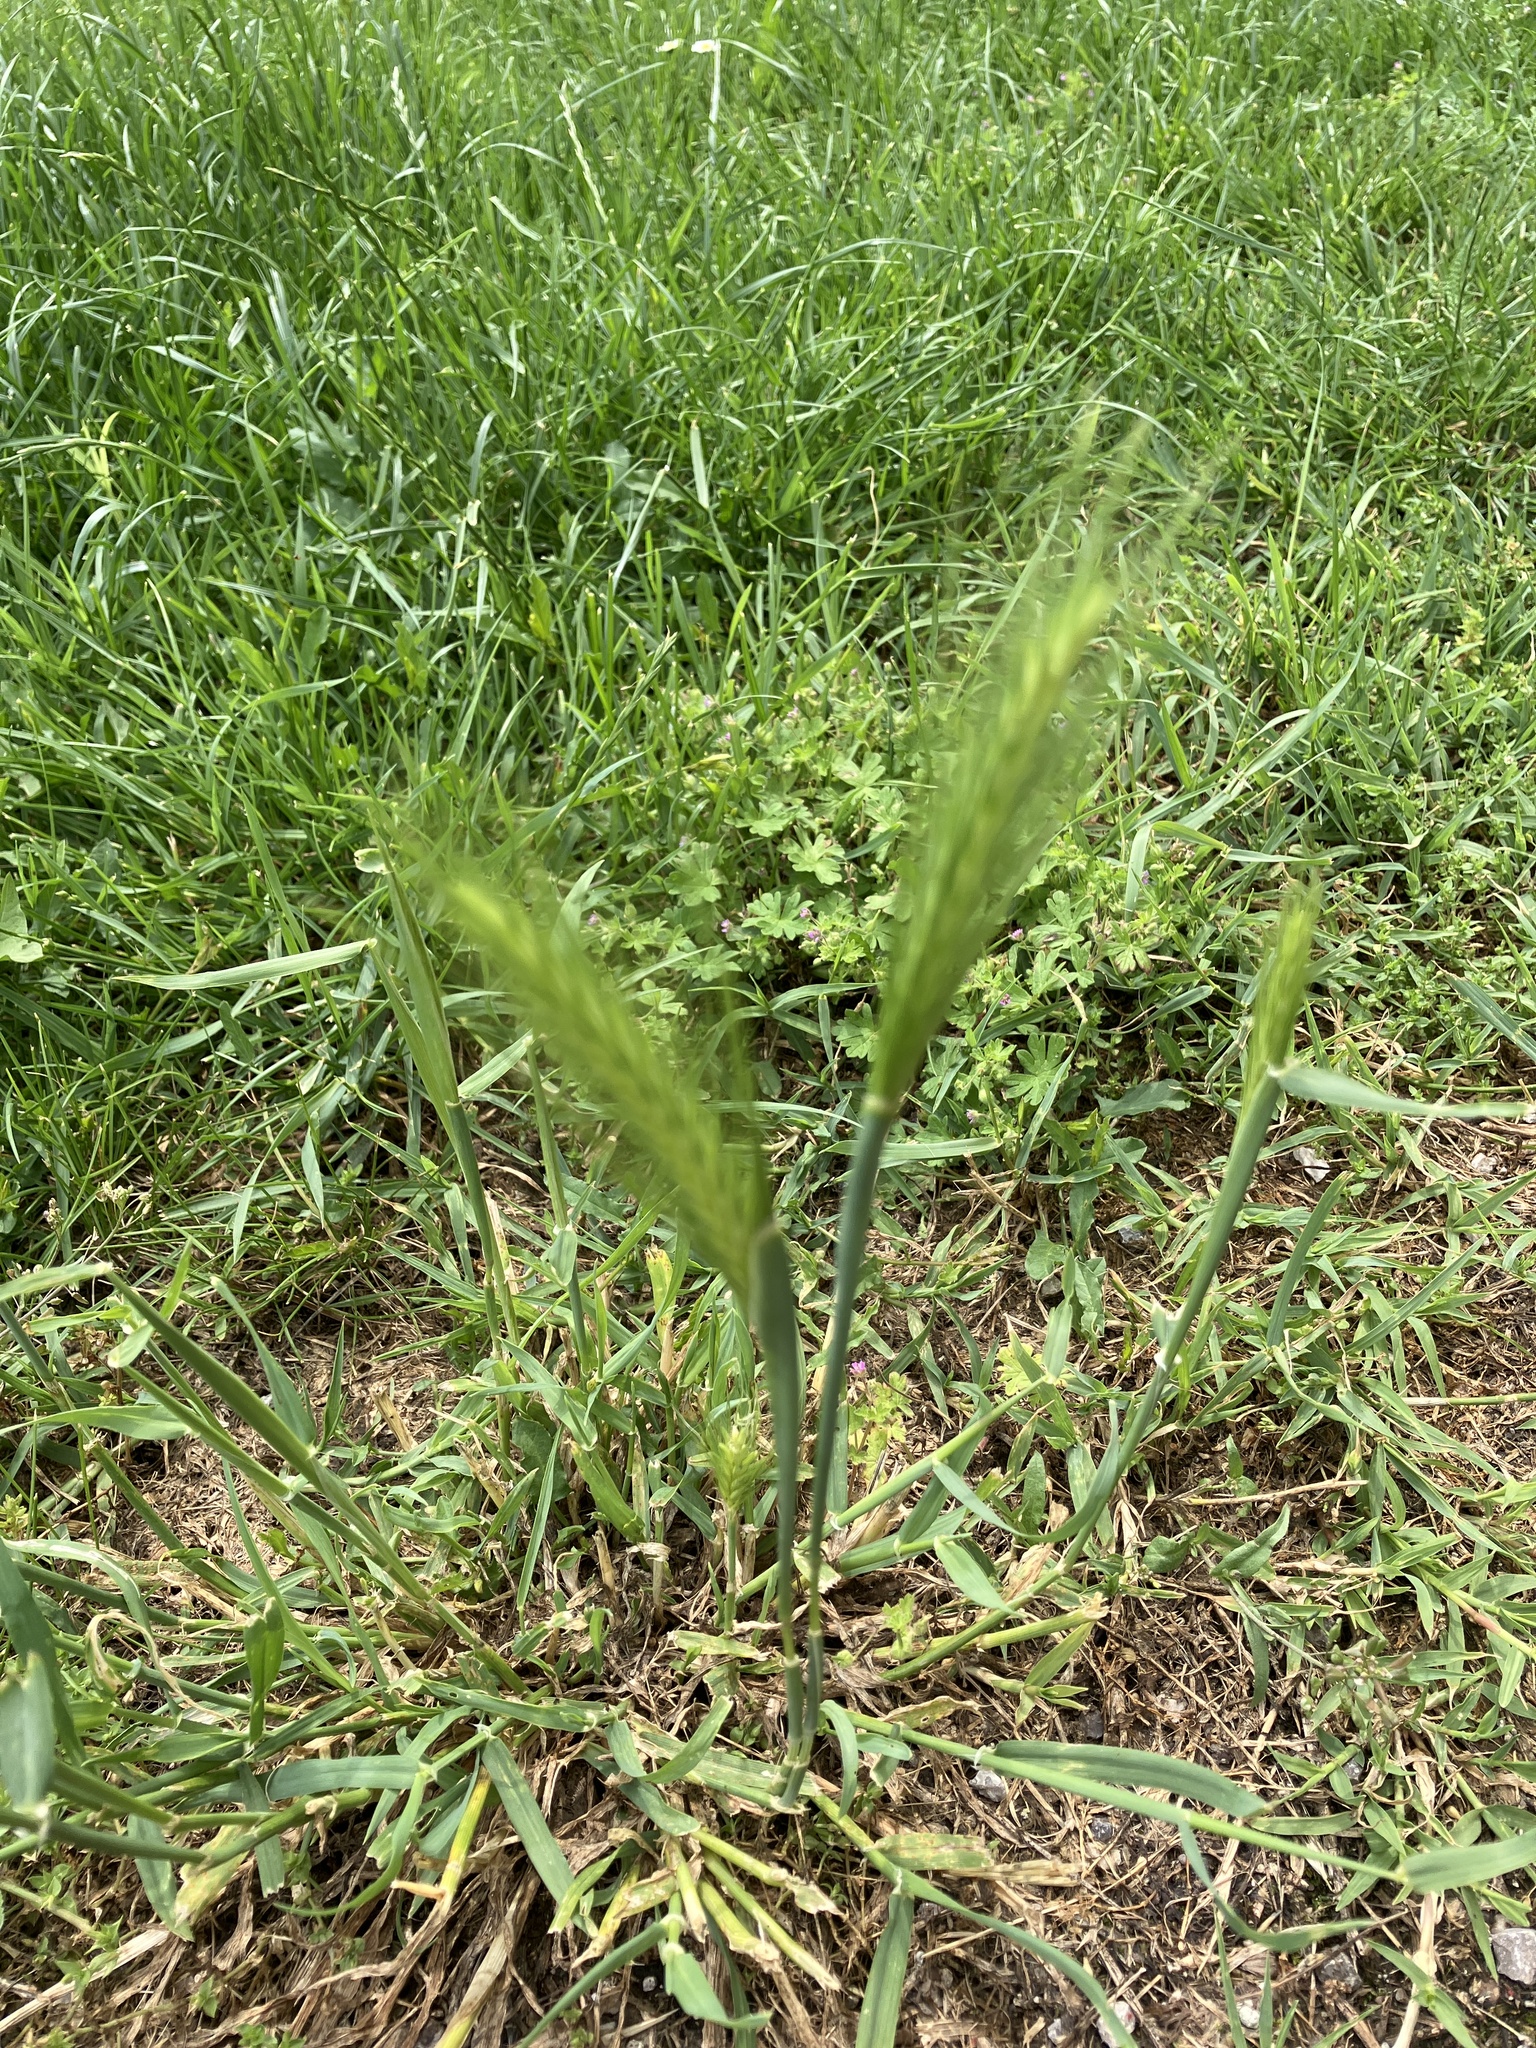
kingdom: Plantae
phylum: Tracheophyta
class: Liliopsida
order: Poales
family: Poaceae
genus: Hordeum
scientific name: Hordeum murinum
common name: Wall barley
